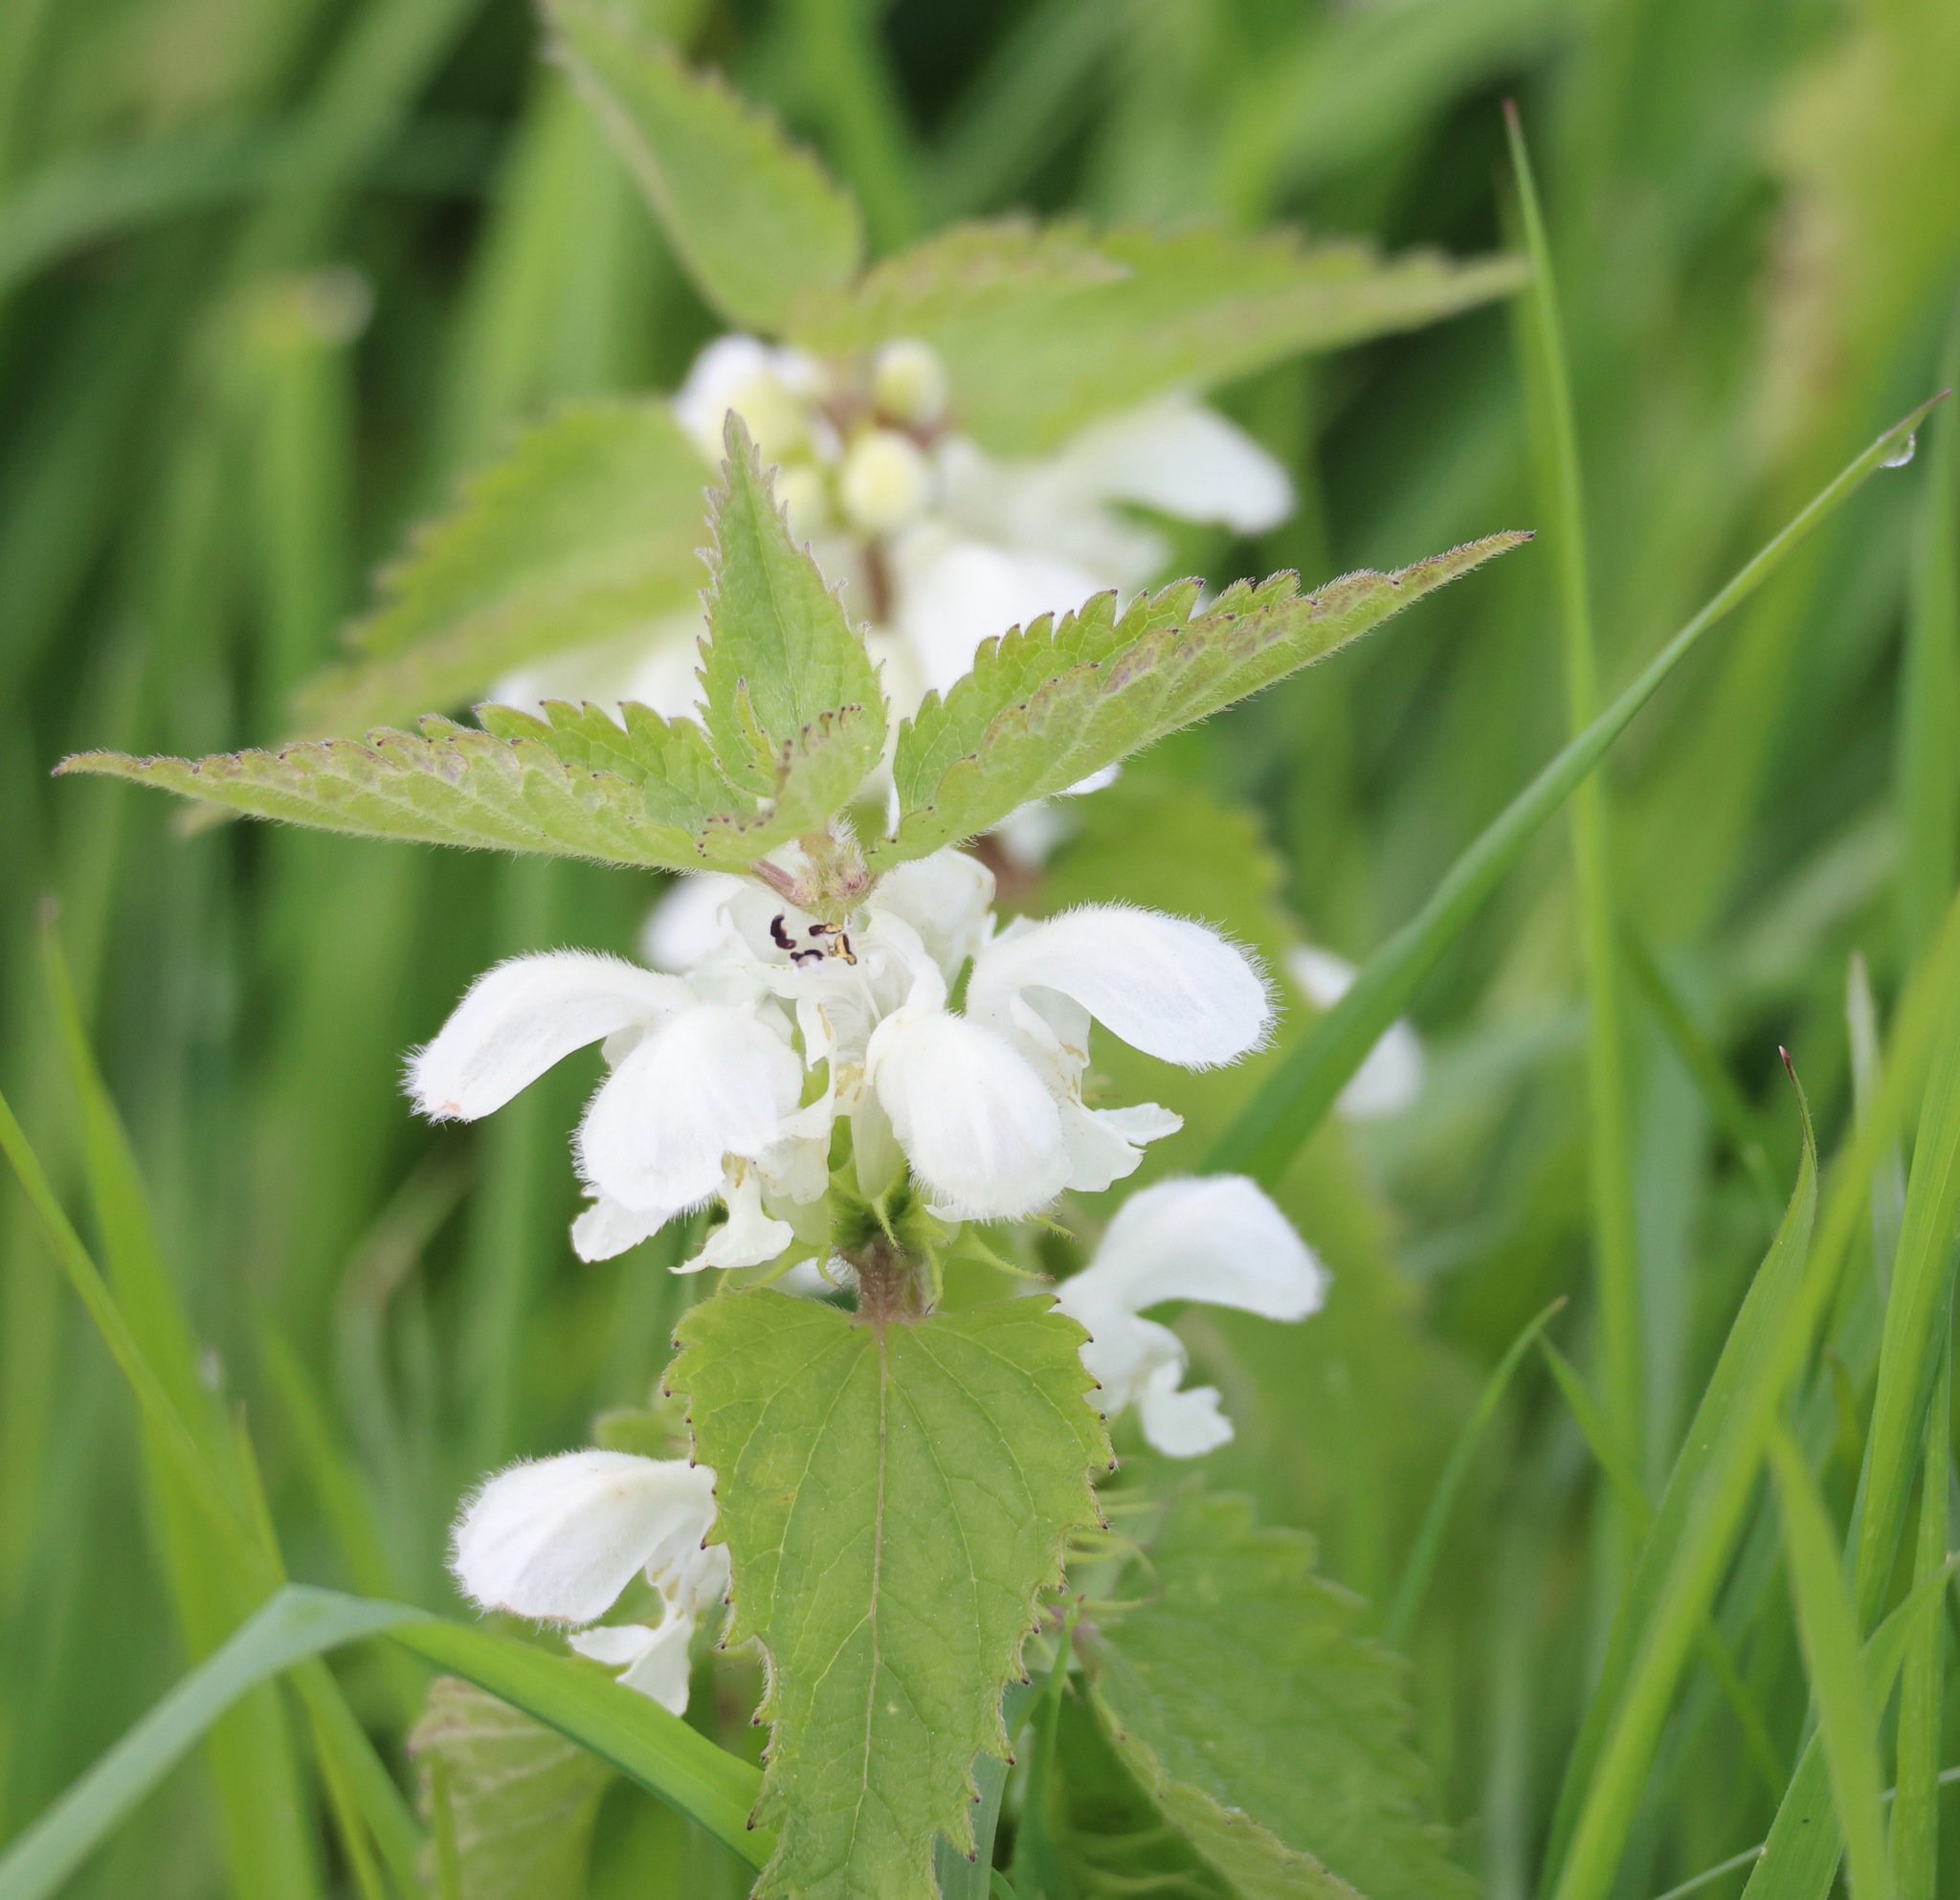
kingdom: Plantae
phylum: Tracheophyta
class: Magnoliopsida
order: Lamiales
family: Lamiaceae
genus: Lamium
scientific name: Lamium album
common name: White dead-nettle
